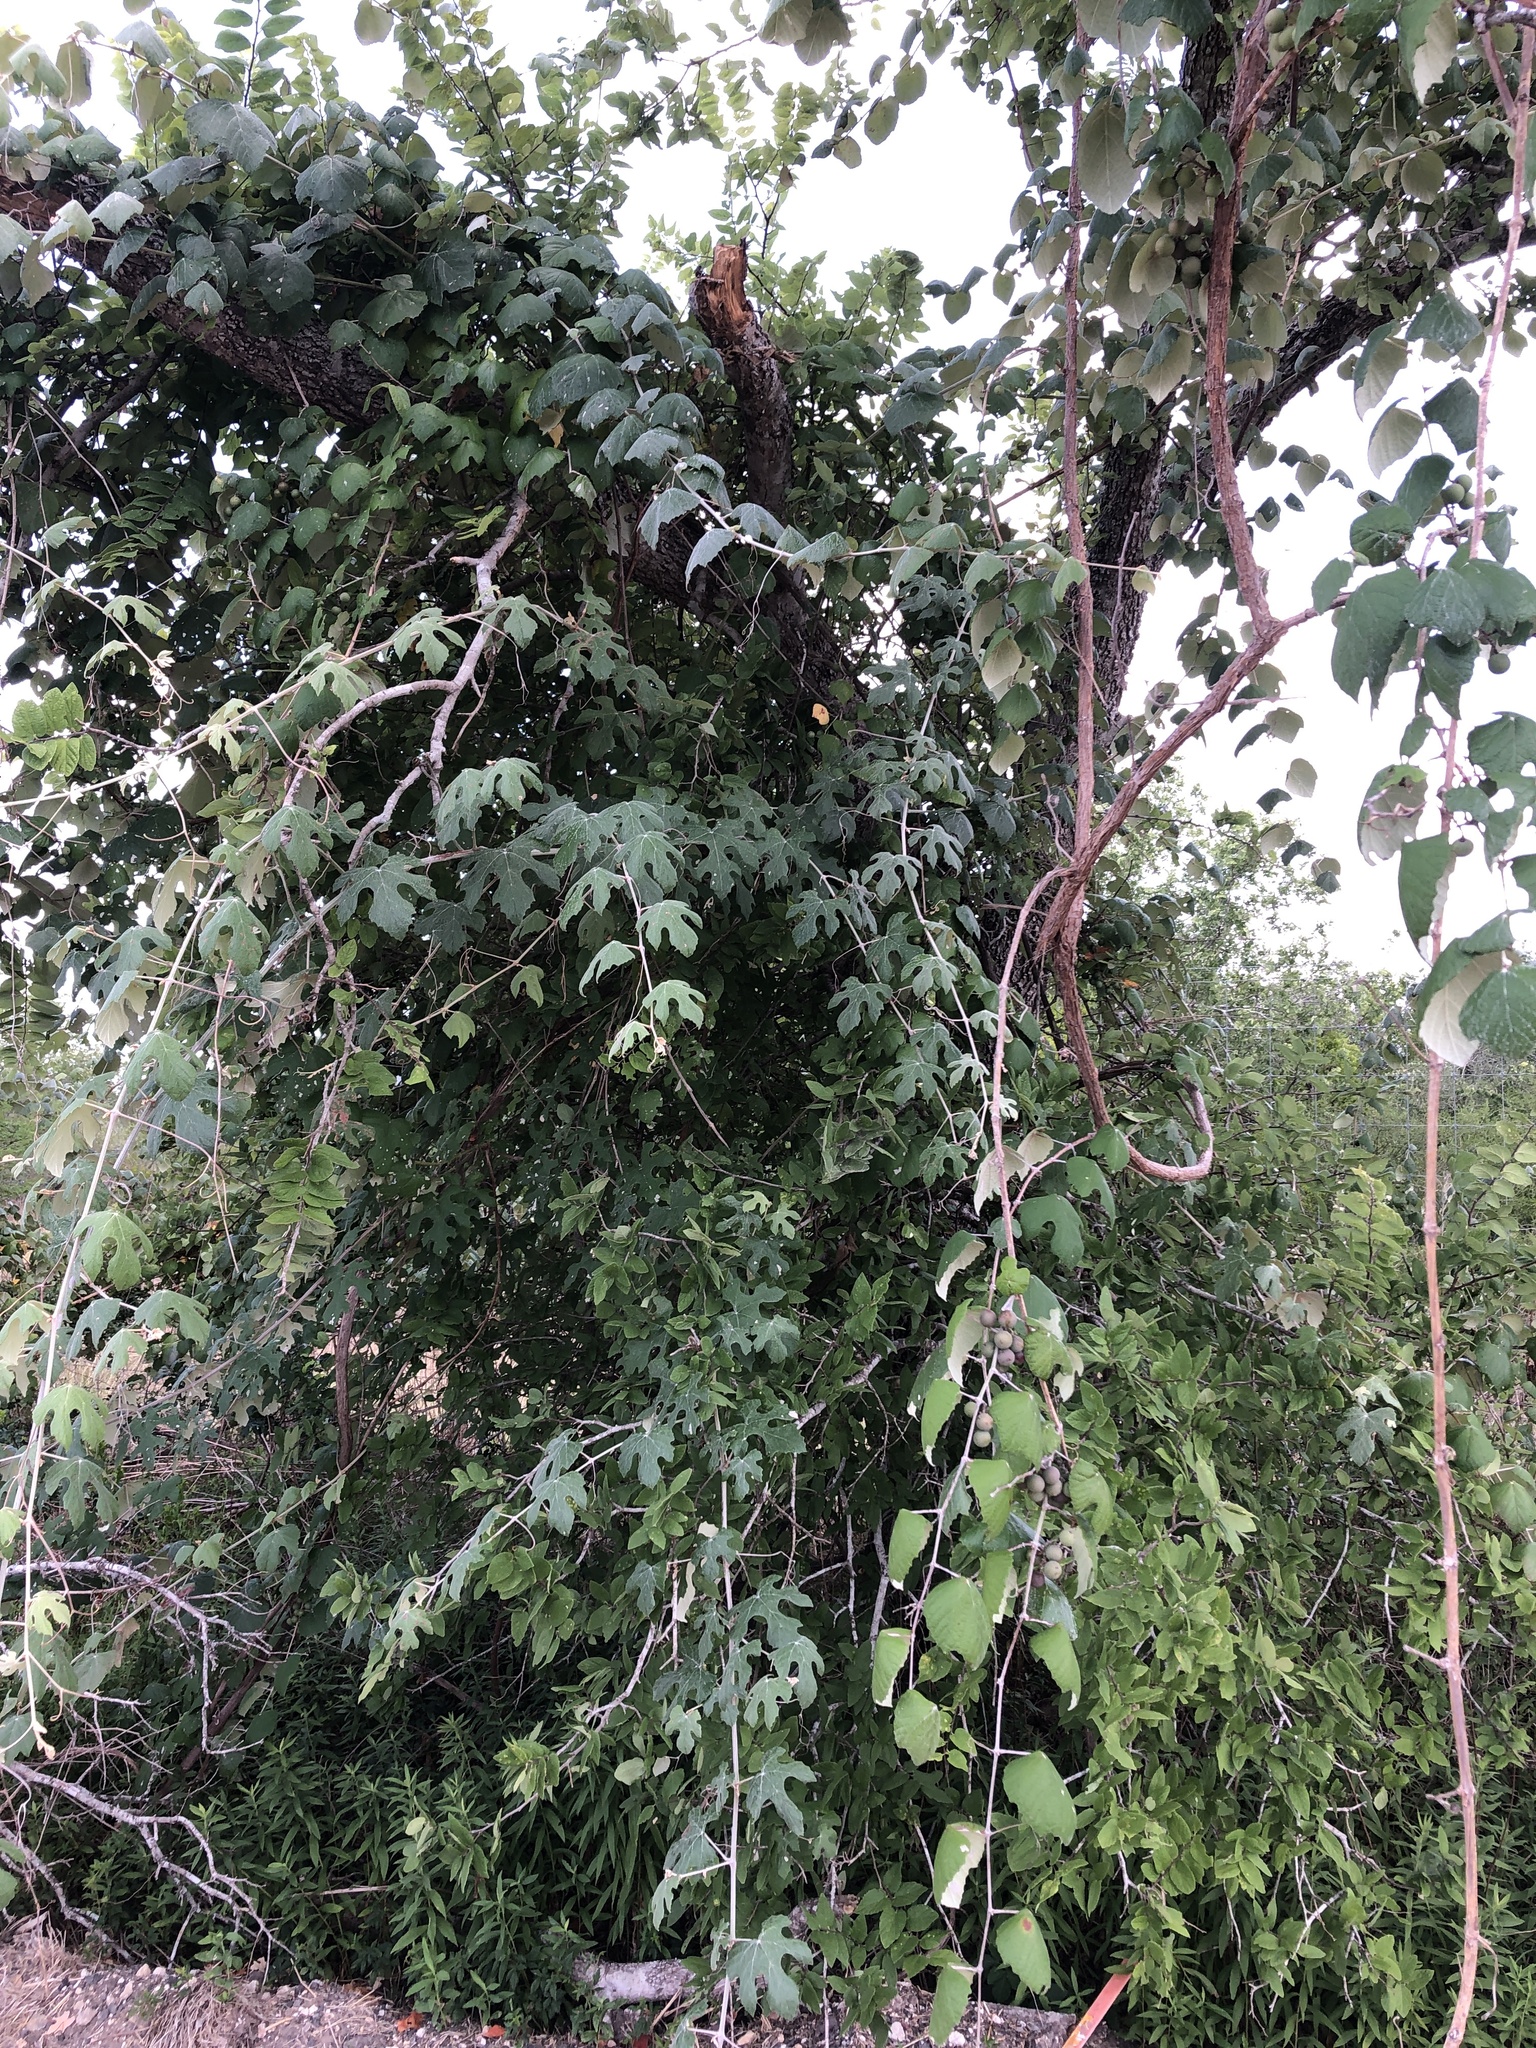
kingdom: Plantae
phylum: Tracheophyta
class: Magnoliopsida
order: Vitales
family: Vitaceae
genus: Vitis
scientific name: Vitis mustangensis
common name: Mustang grape
